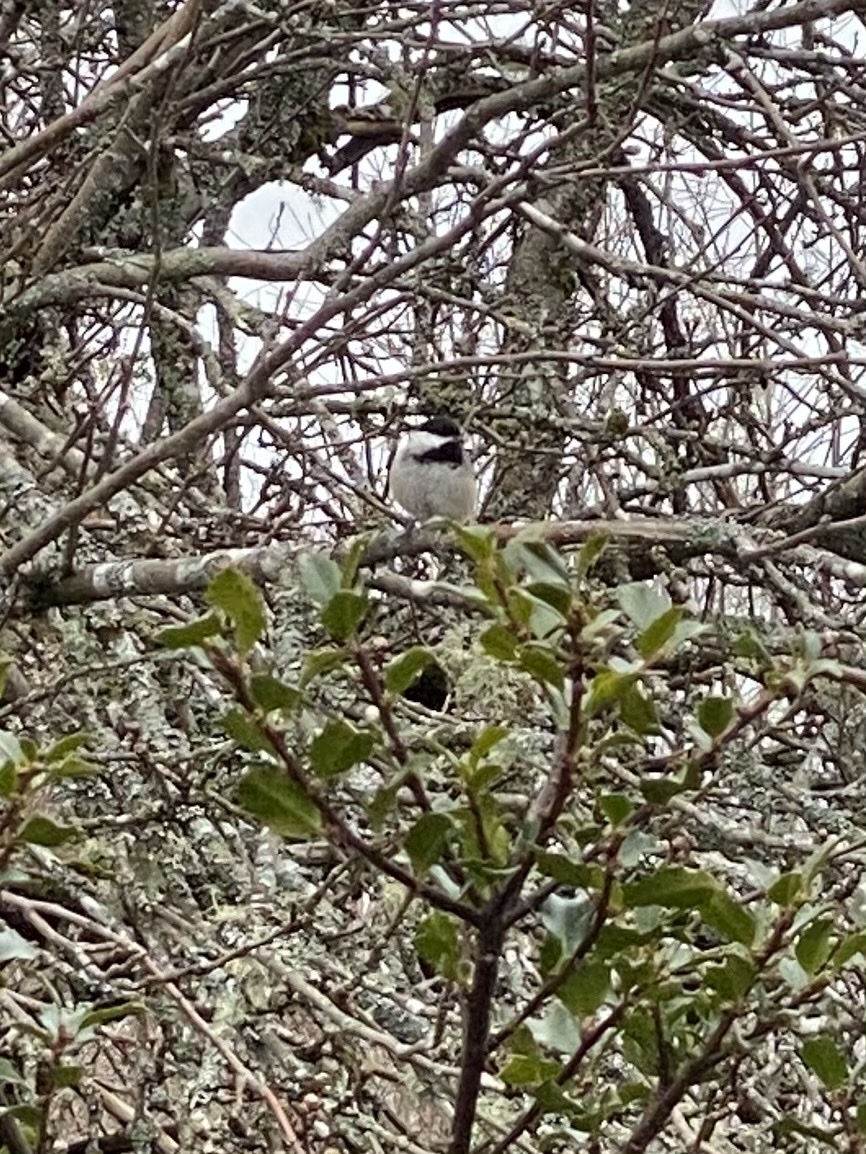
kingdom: Animalia
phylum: Chordata
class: Aves
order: Passeriformes
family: Paridae
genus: Poecile
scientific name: Poecile atricapillus
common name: Black-capped chickadee
